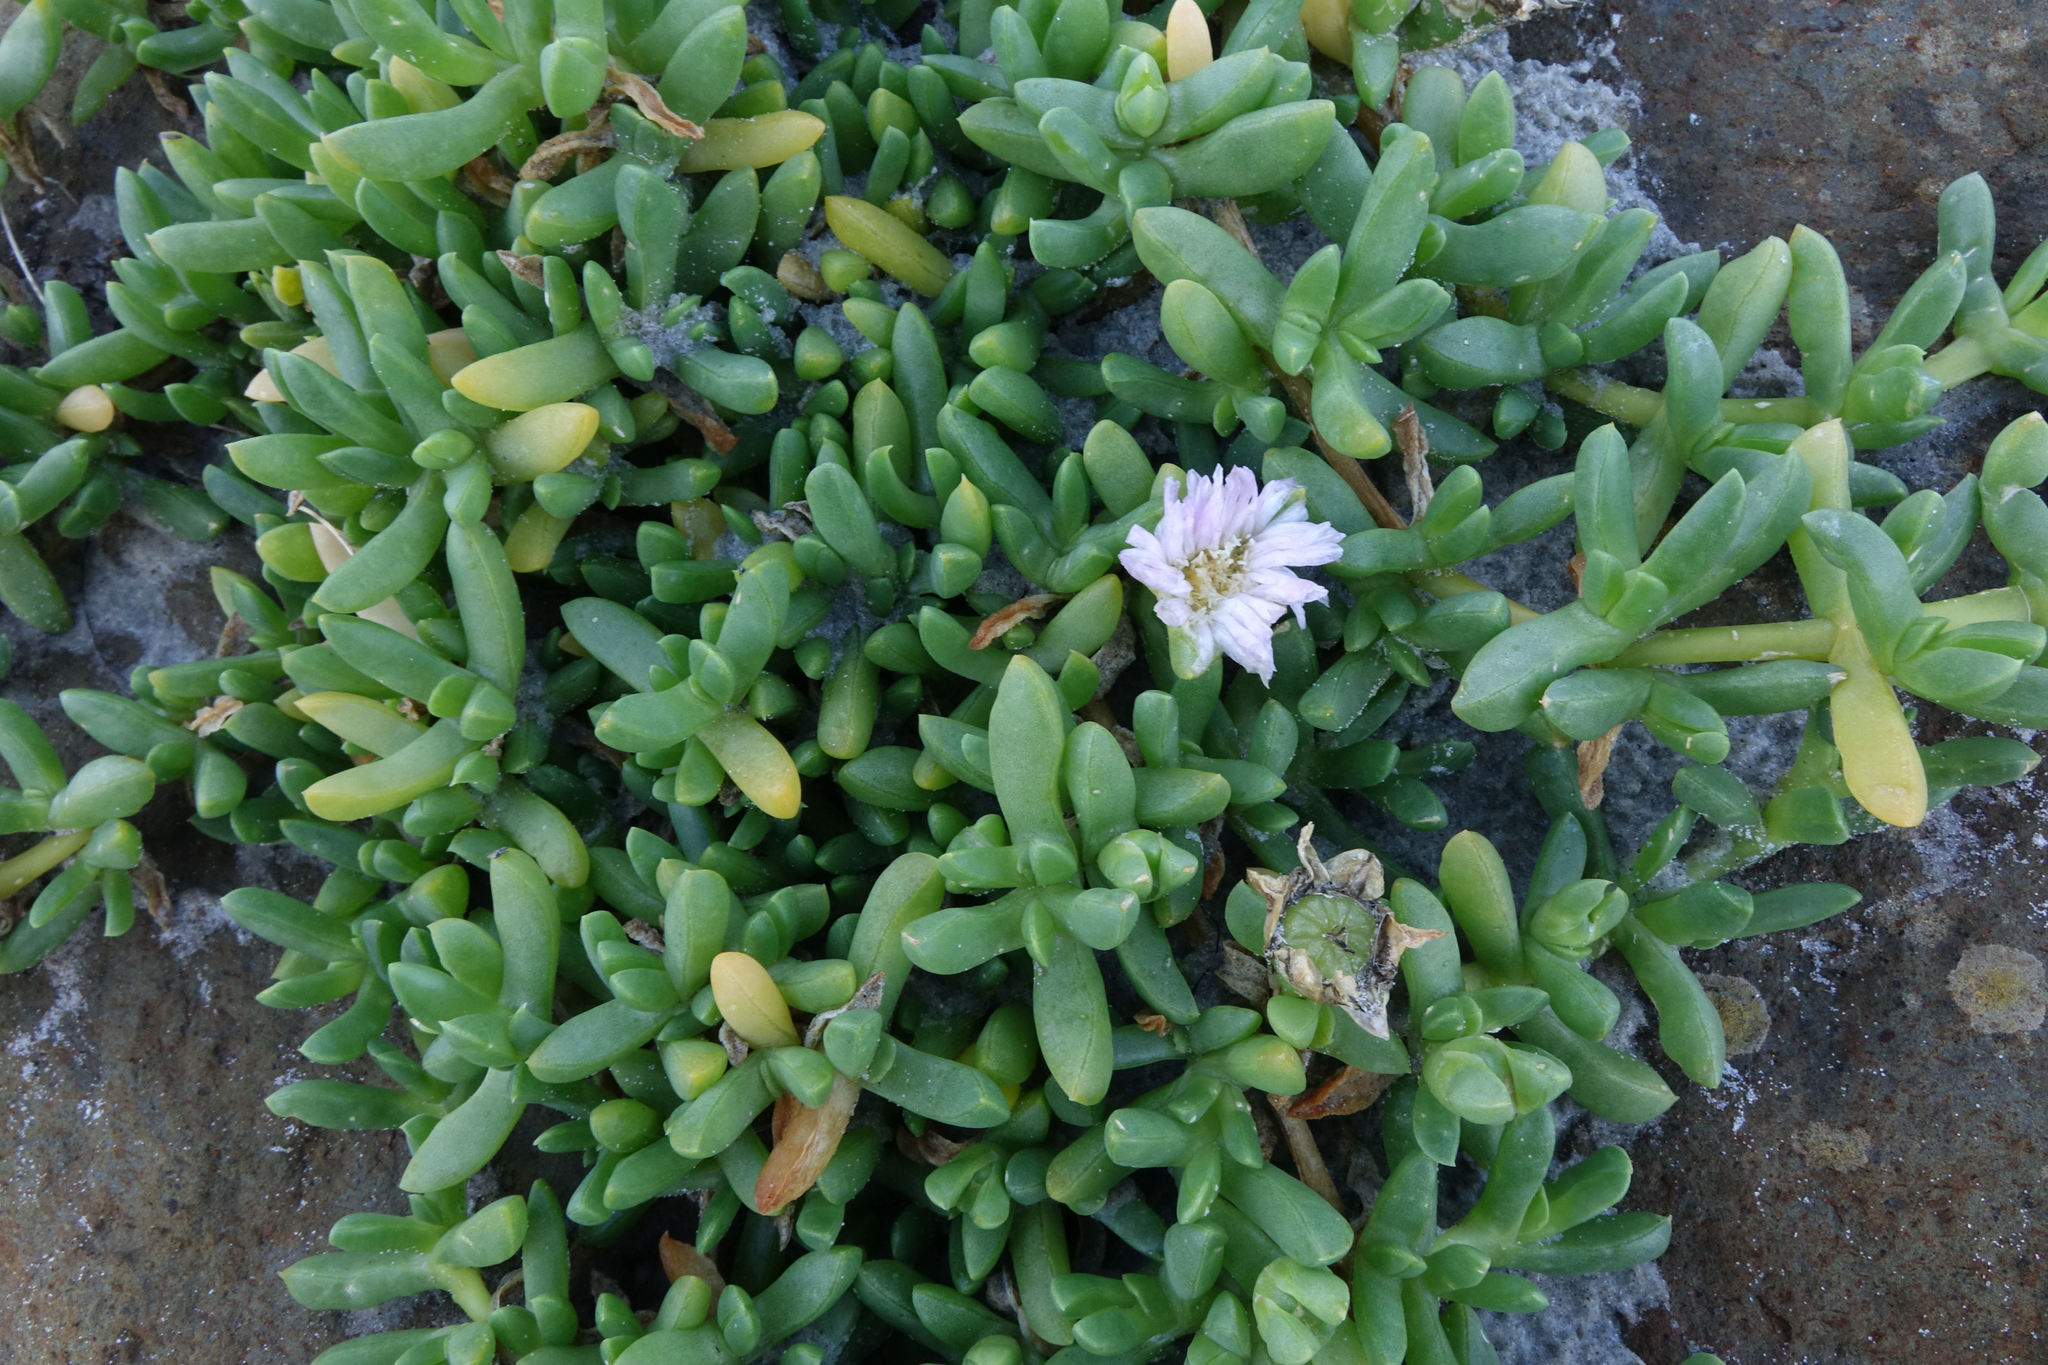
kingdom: Plantae
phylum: Tracheophyta
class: Magnoliopsida
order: Caryophyllales
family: Aizoaceae
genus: Disphyma
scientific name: Disphyma australe
